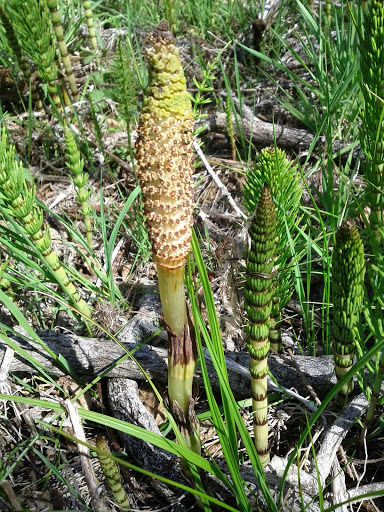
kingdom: Plantae
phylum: Tracheophyta
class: Polypodiopsida
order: Equisetales
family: Equisetaceae
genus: Equisetum
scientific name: Equisetum telmateia
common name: Great horsetail
